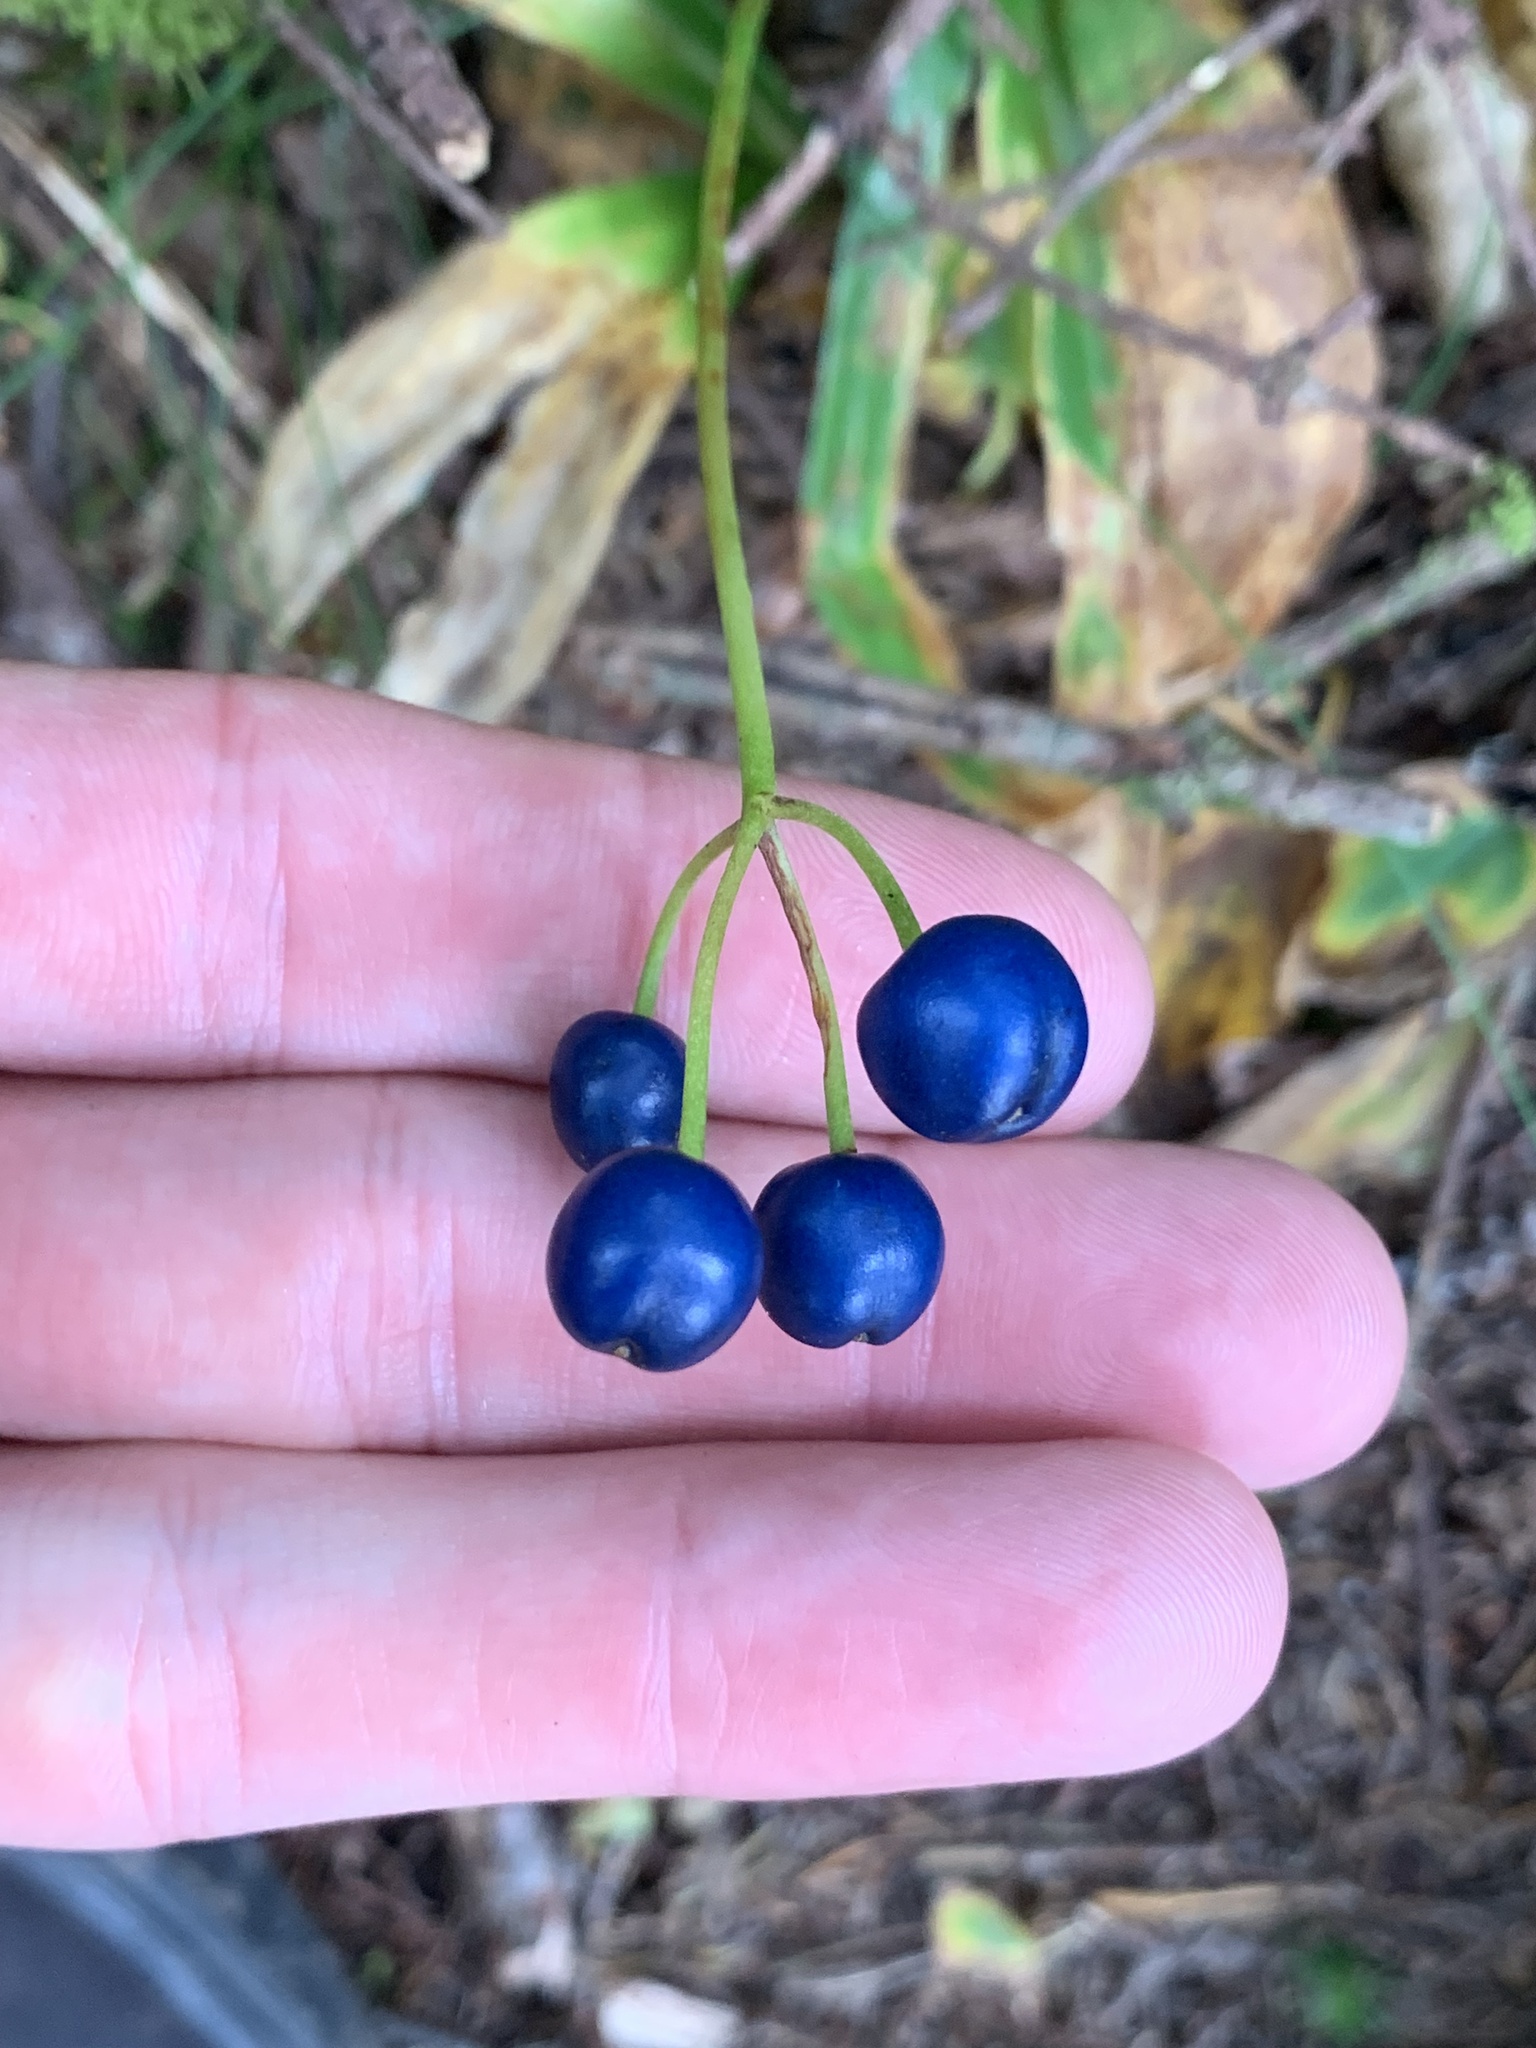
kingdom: Plantae
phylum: Tracheophyta
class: Liliopsida
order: Liliales
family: Liliaceae
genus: Clintonia
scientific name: Clintonia borealis
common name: Yellow clintonia
